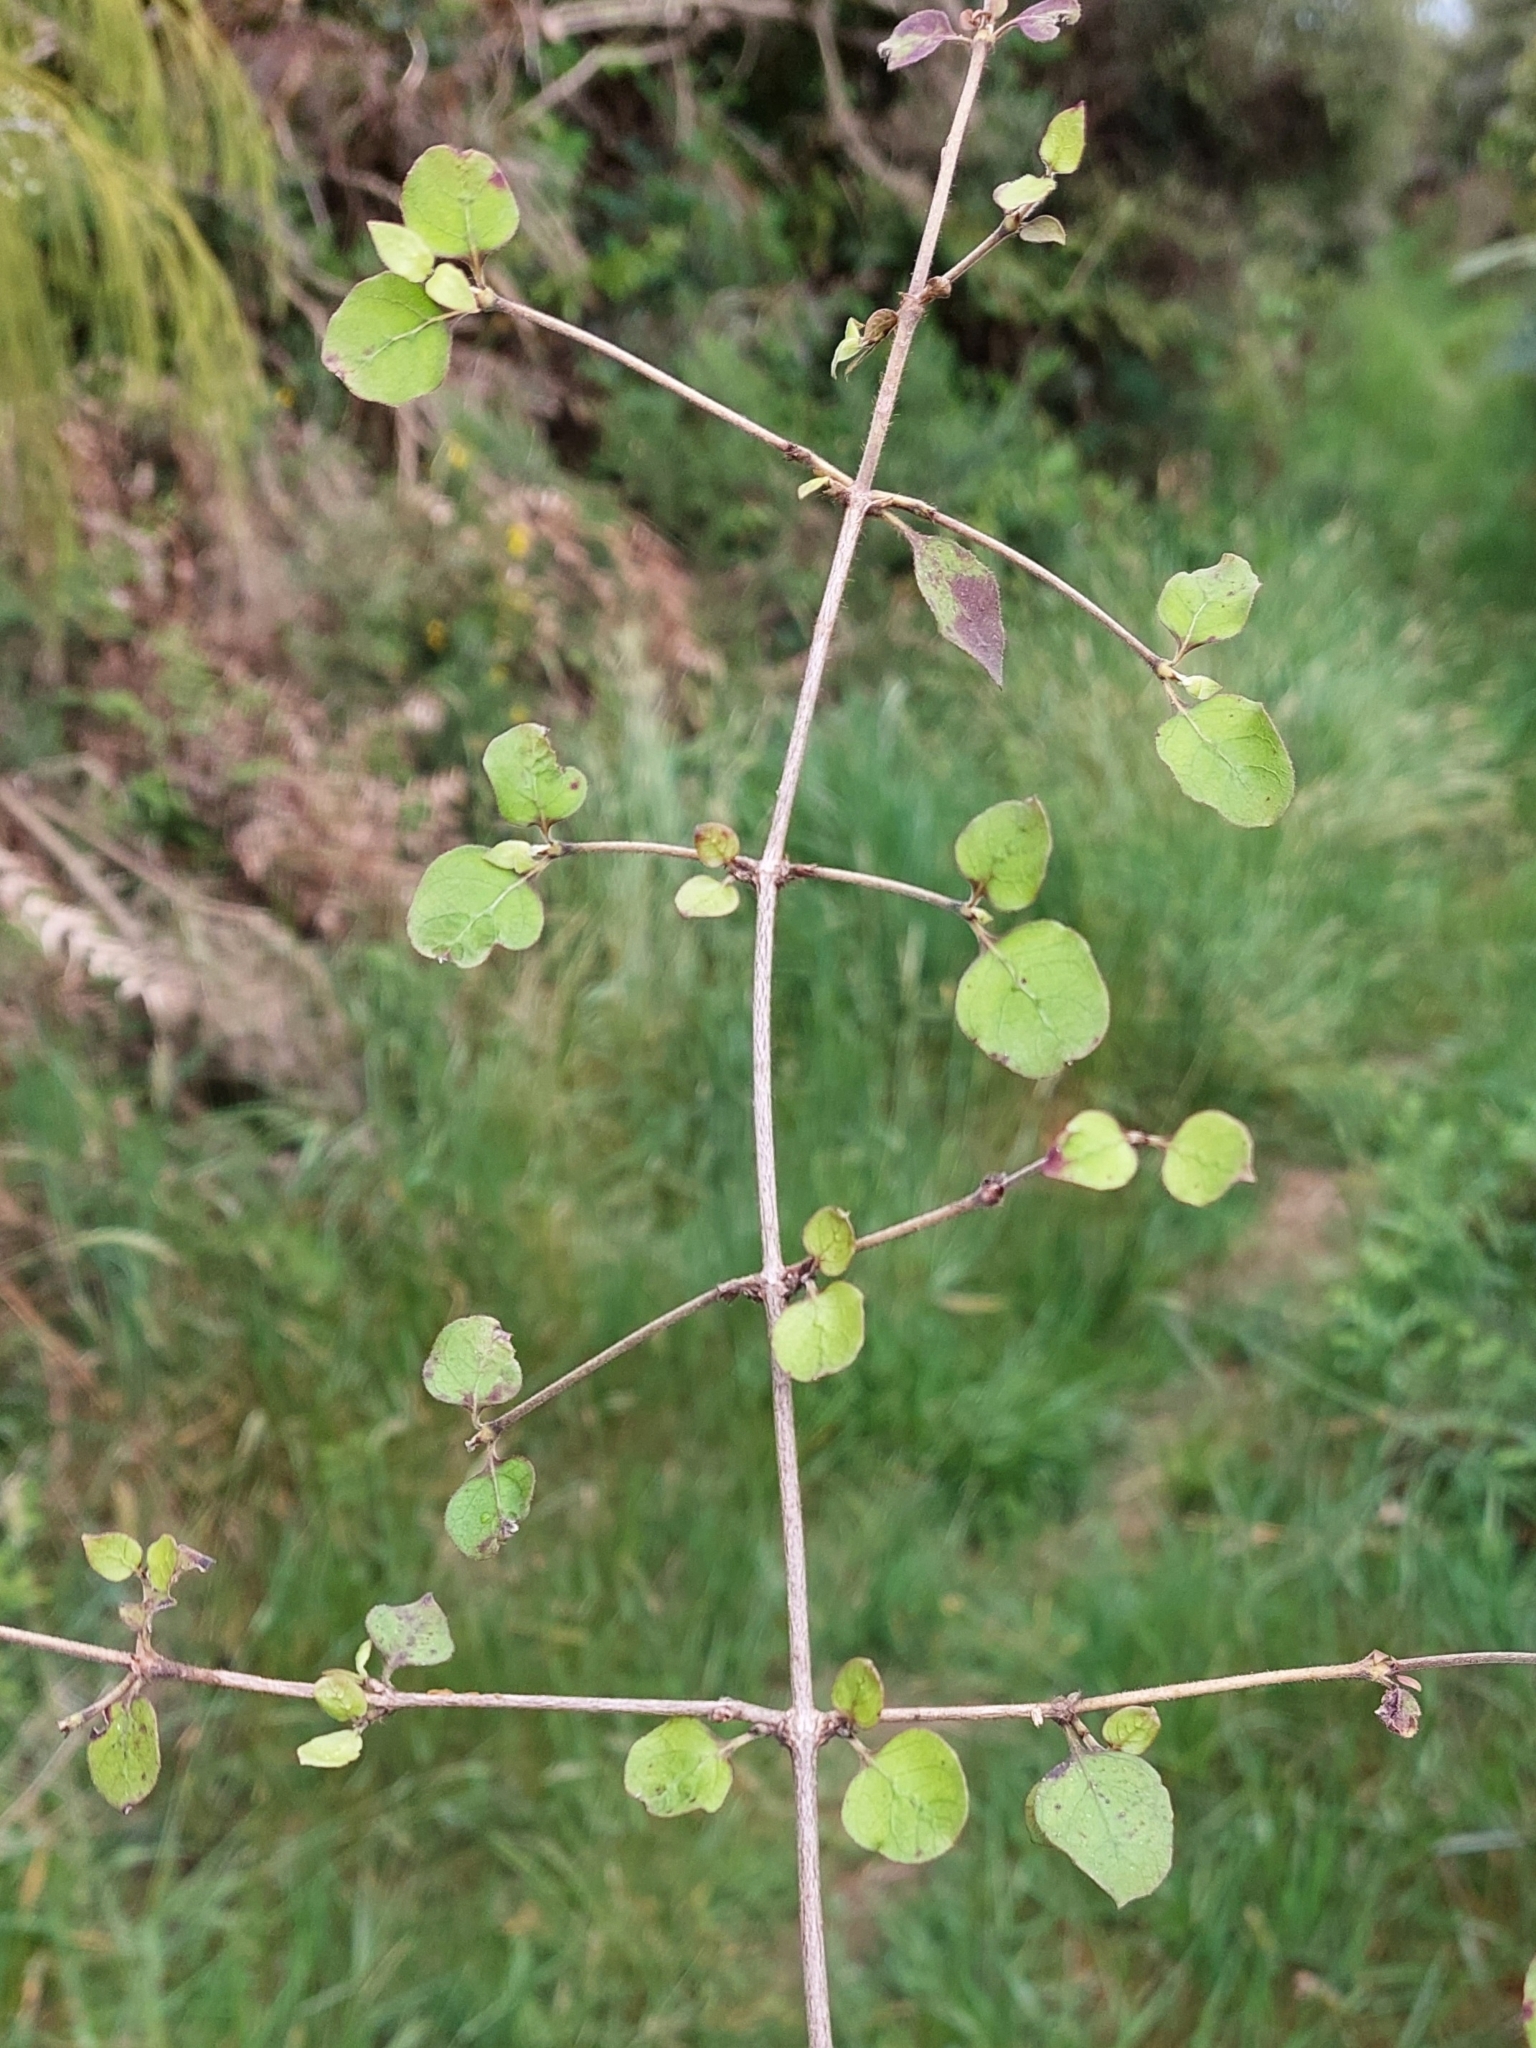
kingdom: Plantae
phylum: Tracheophyta
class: Magnoliopsida
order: Gentianales
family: Rubiaceae
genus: Coprosma
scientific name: Coprosma rotundifolia
